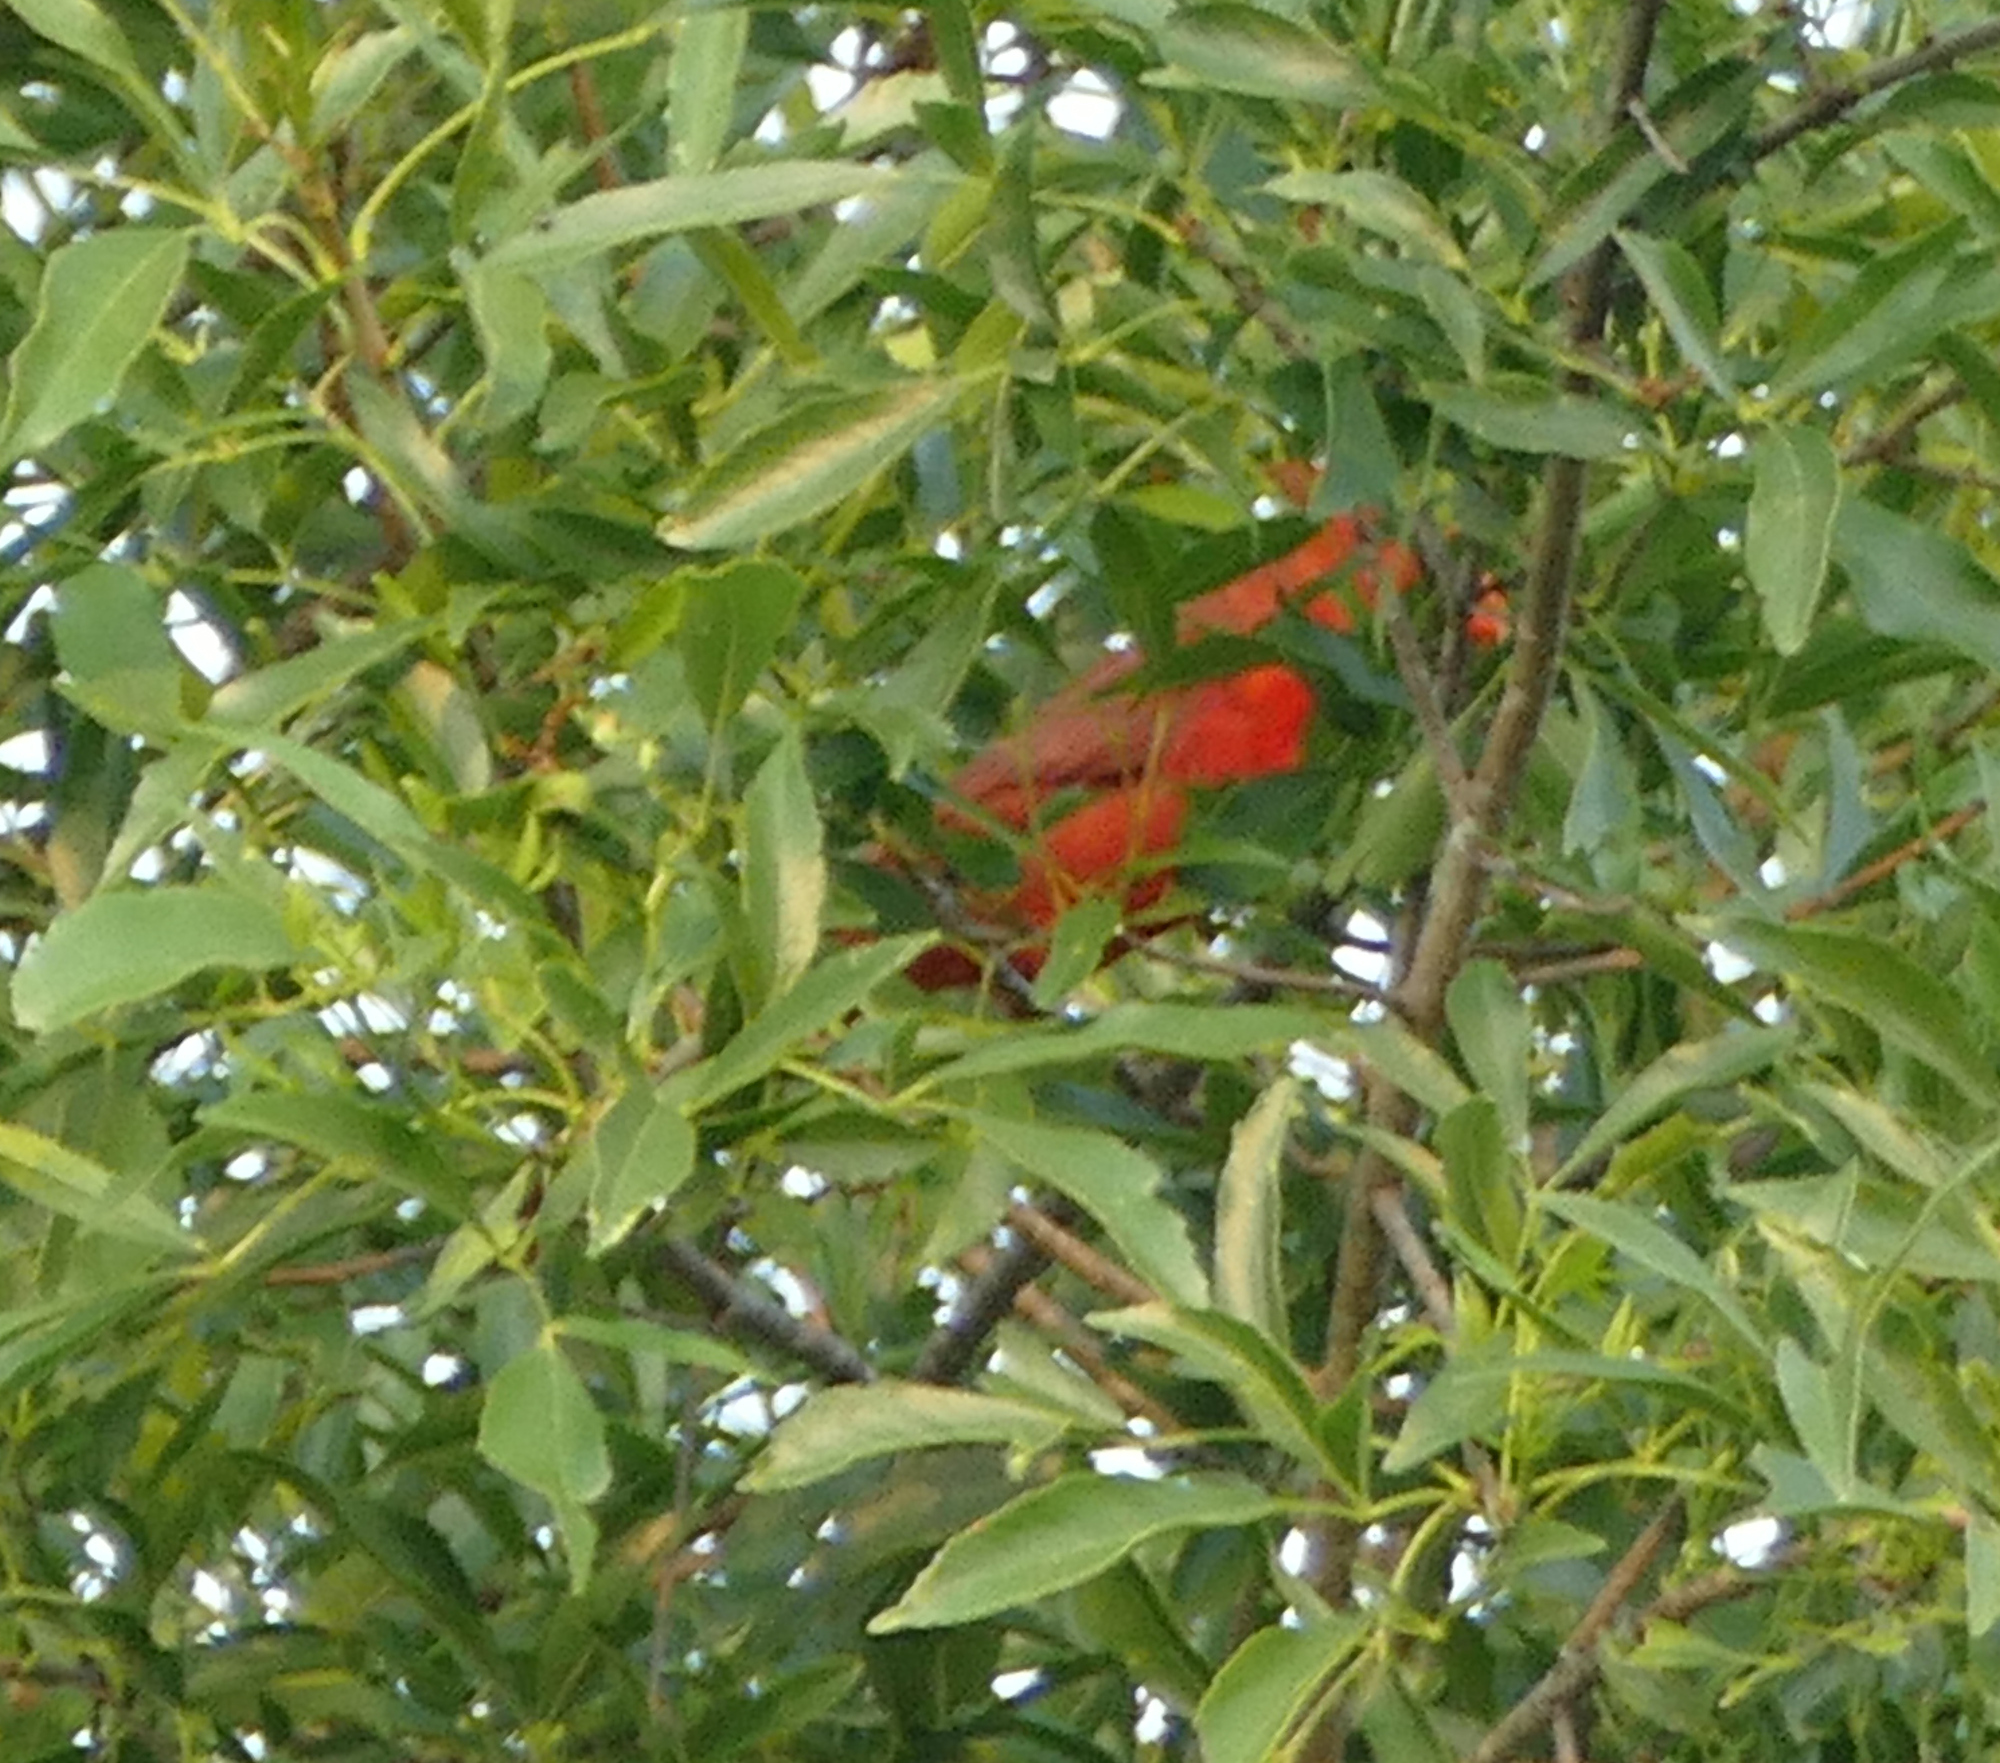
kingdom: Animalia
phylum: Chordata
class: Aves
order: Passeriformes
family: Cardinalidae
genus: Cardinalis
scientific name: Cardinalis cardinalis
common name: Northern cardinal
